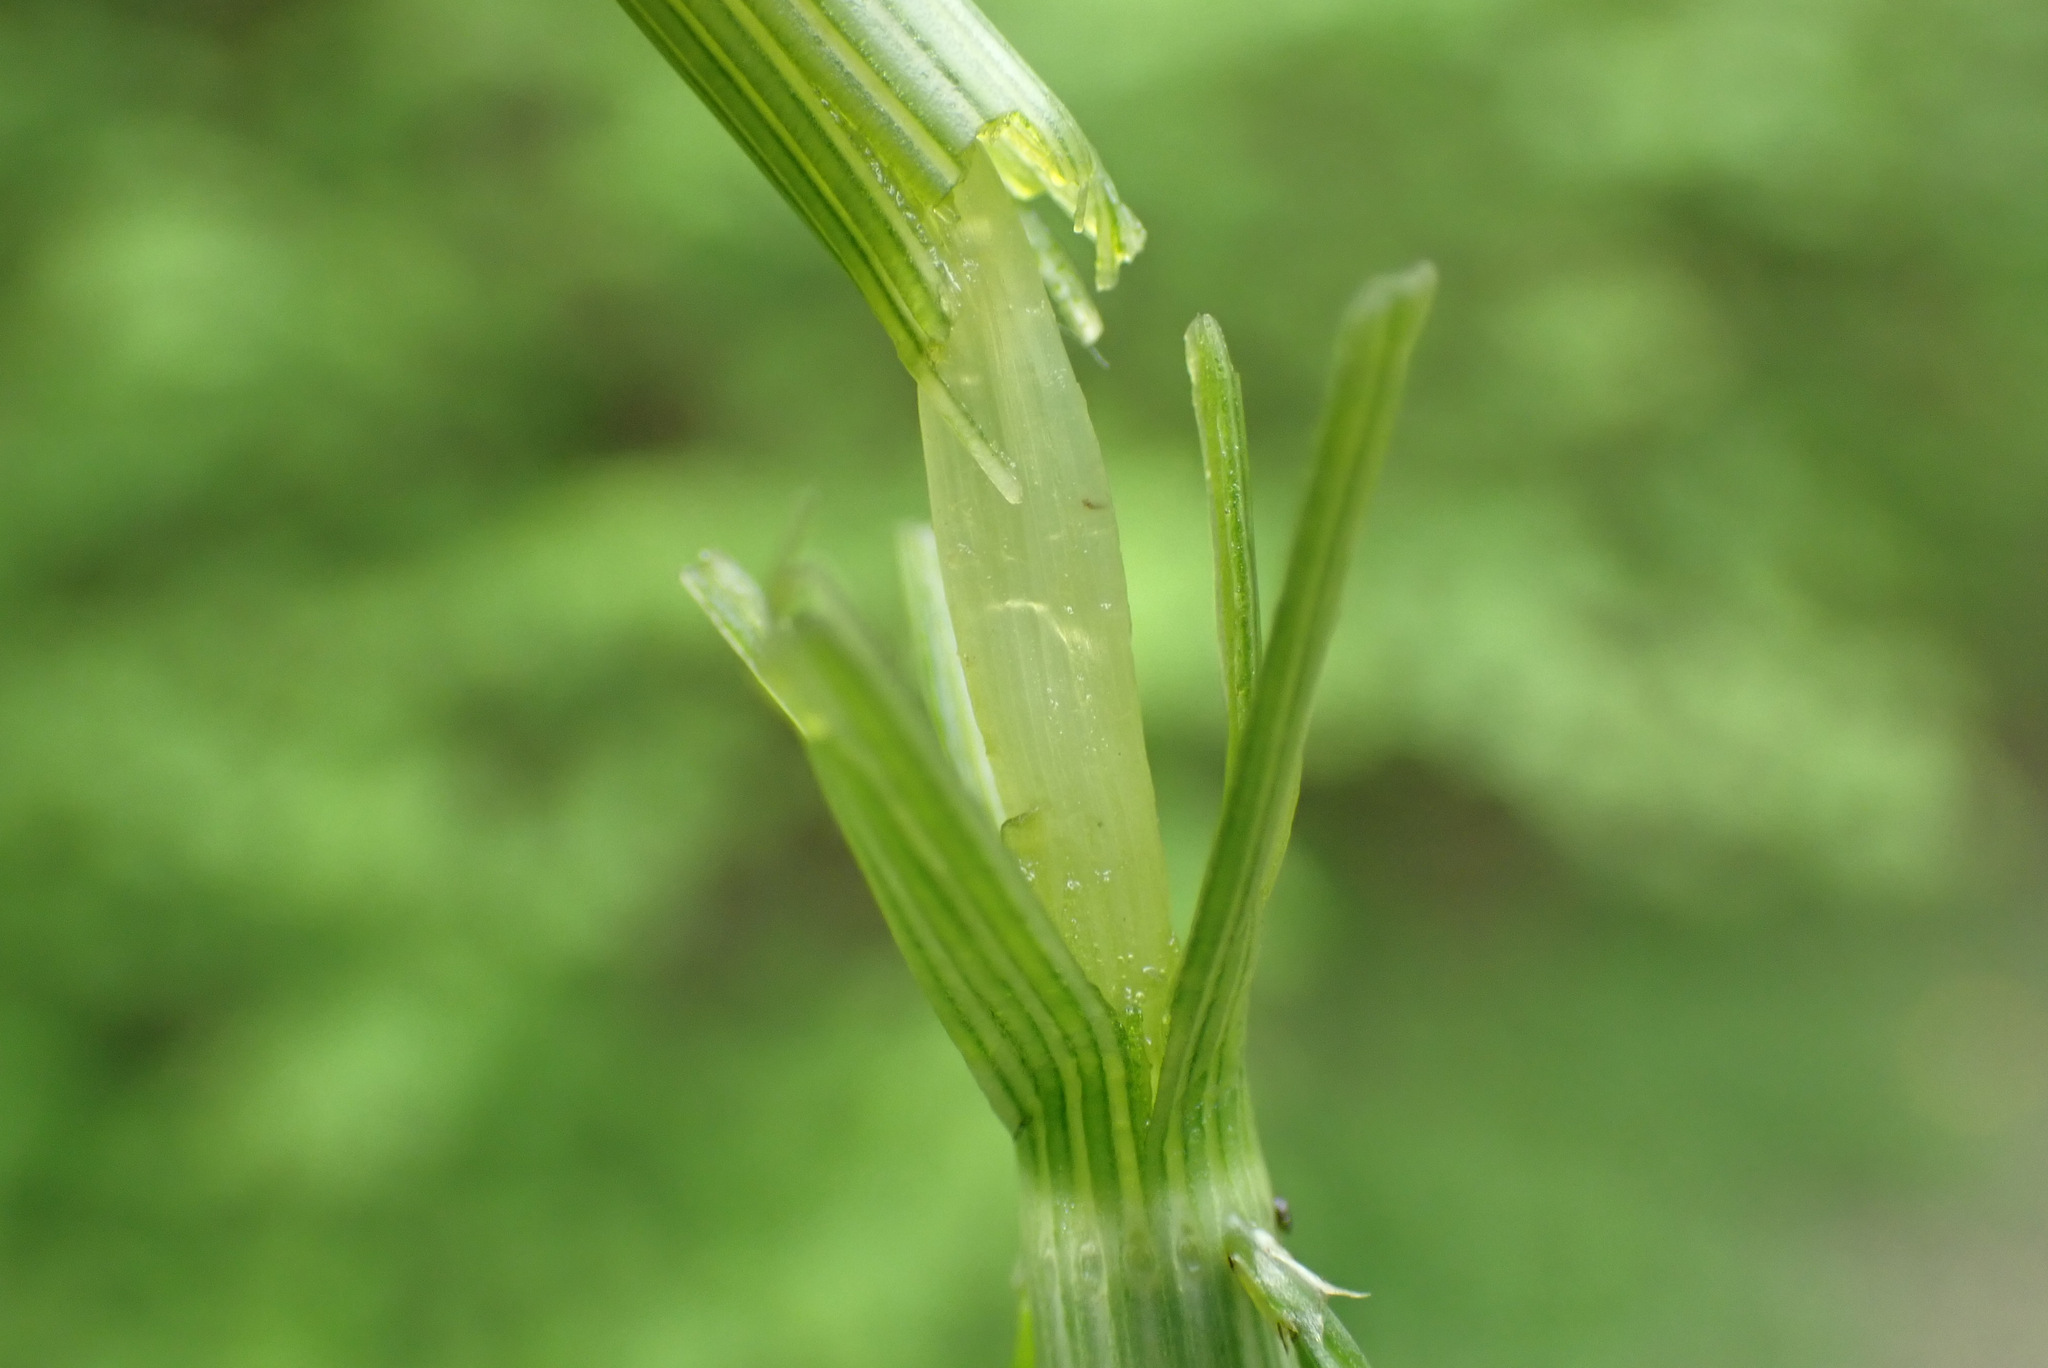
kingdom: Plantae
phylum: Tracheophyta
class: Polypodiopsida
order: Equisetales
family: Equisetaceae
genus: Equisetum
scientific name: Equisetum arvense
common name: Field horsetail
